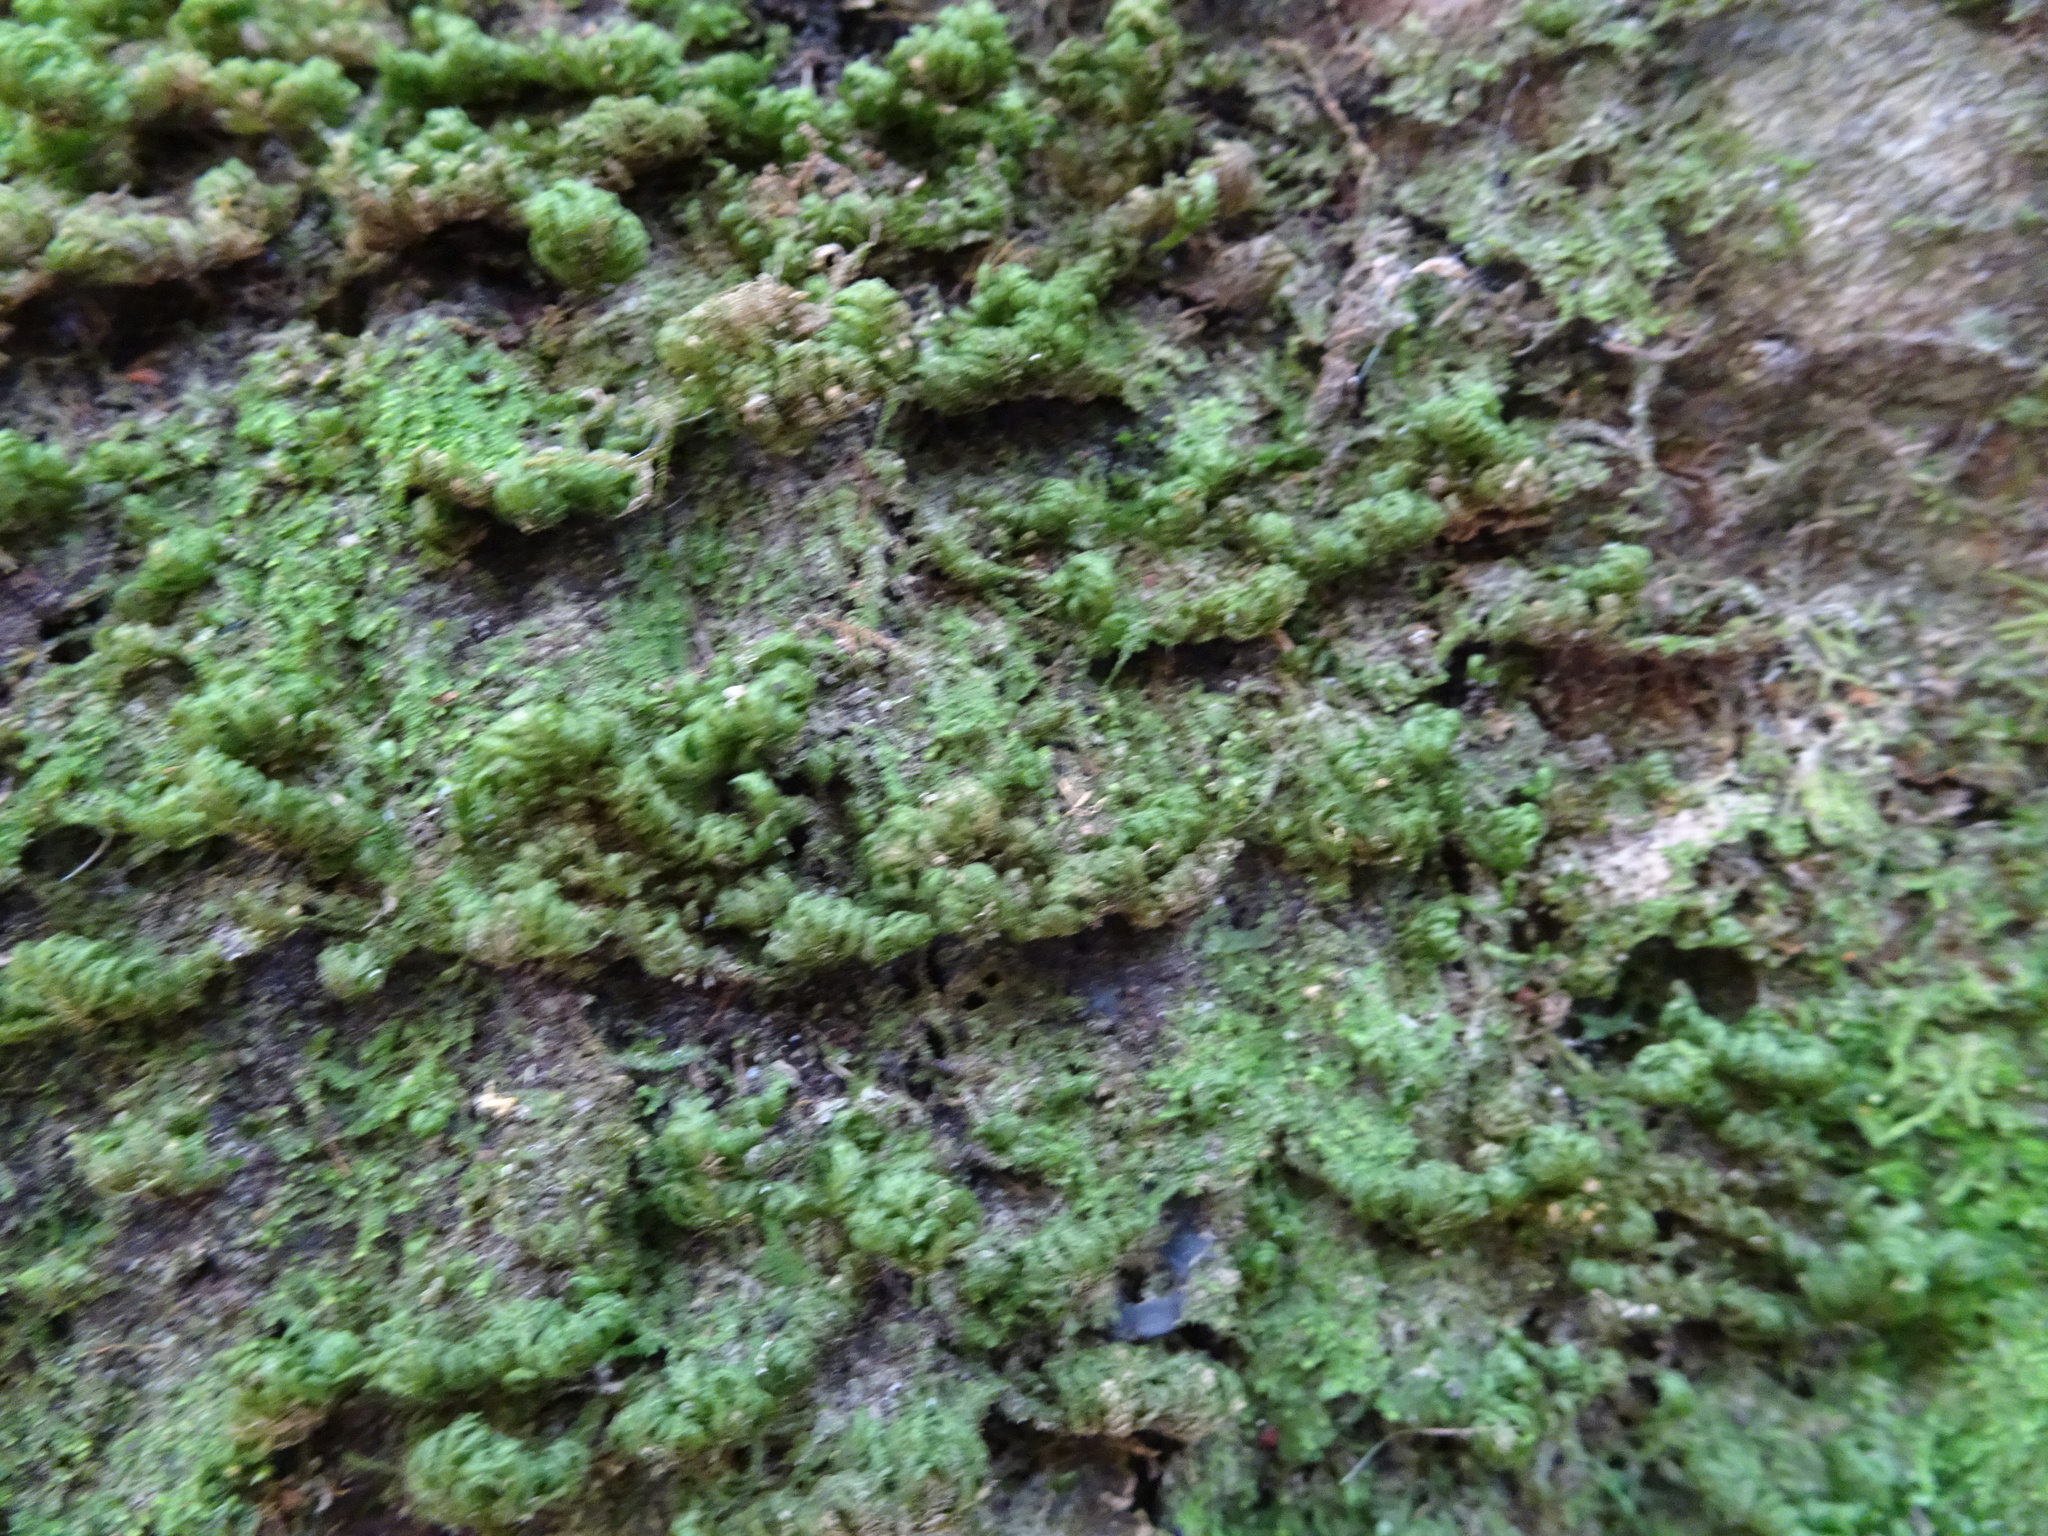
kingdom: Plantae
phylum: Bryophyta
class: Bryopsida
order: Hypnales
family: Neckeraceae
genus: Leptodon
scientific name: Leptodon smithii
